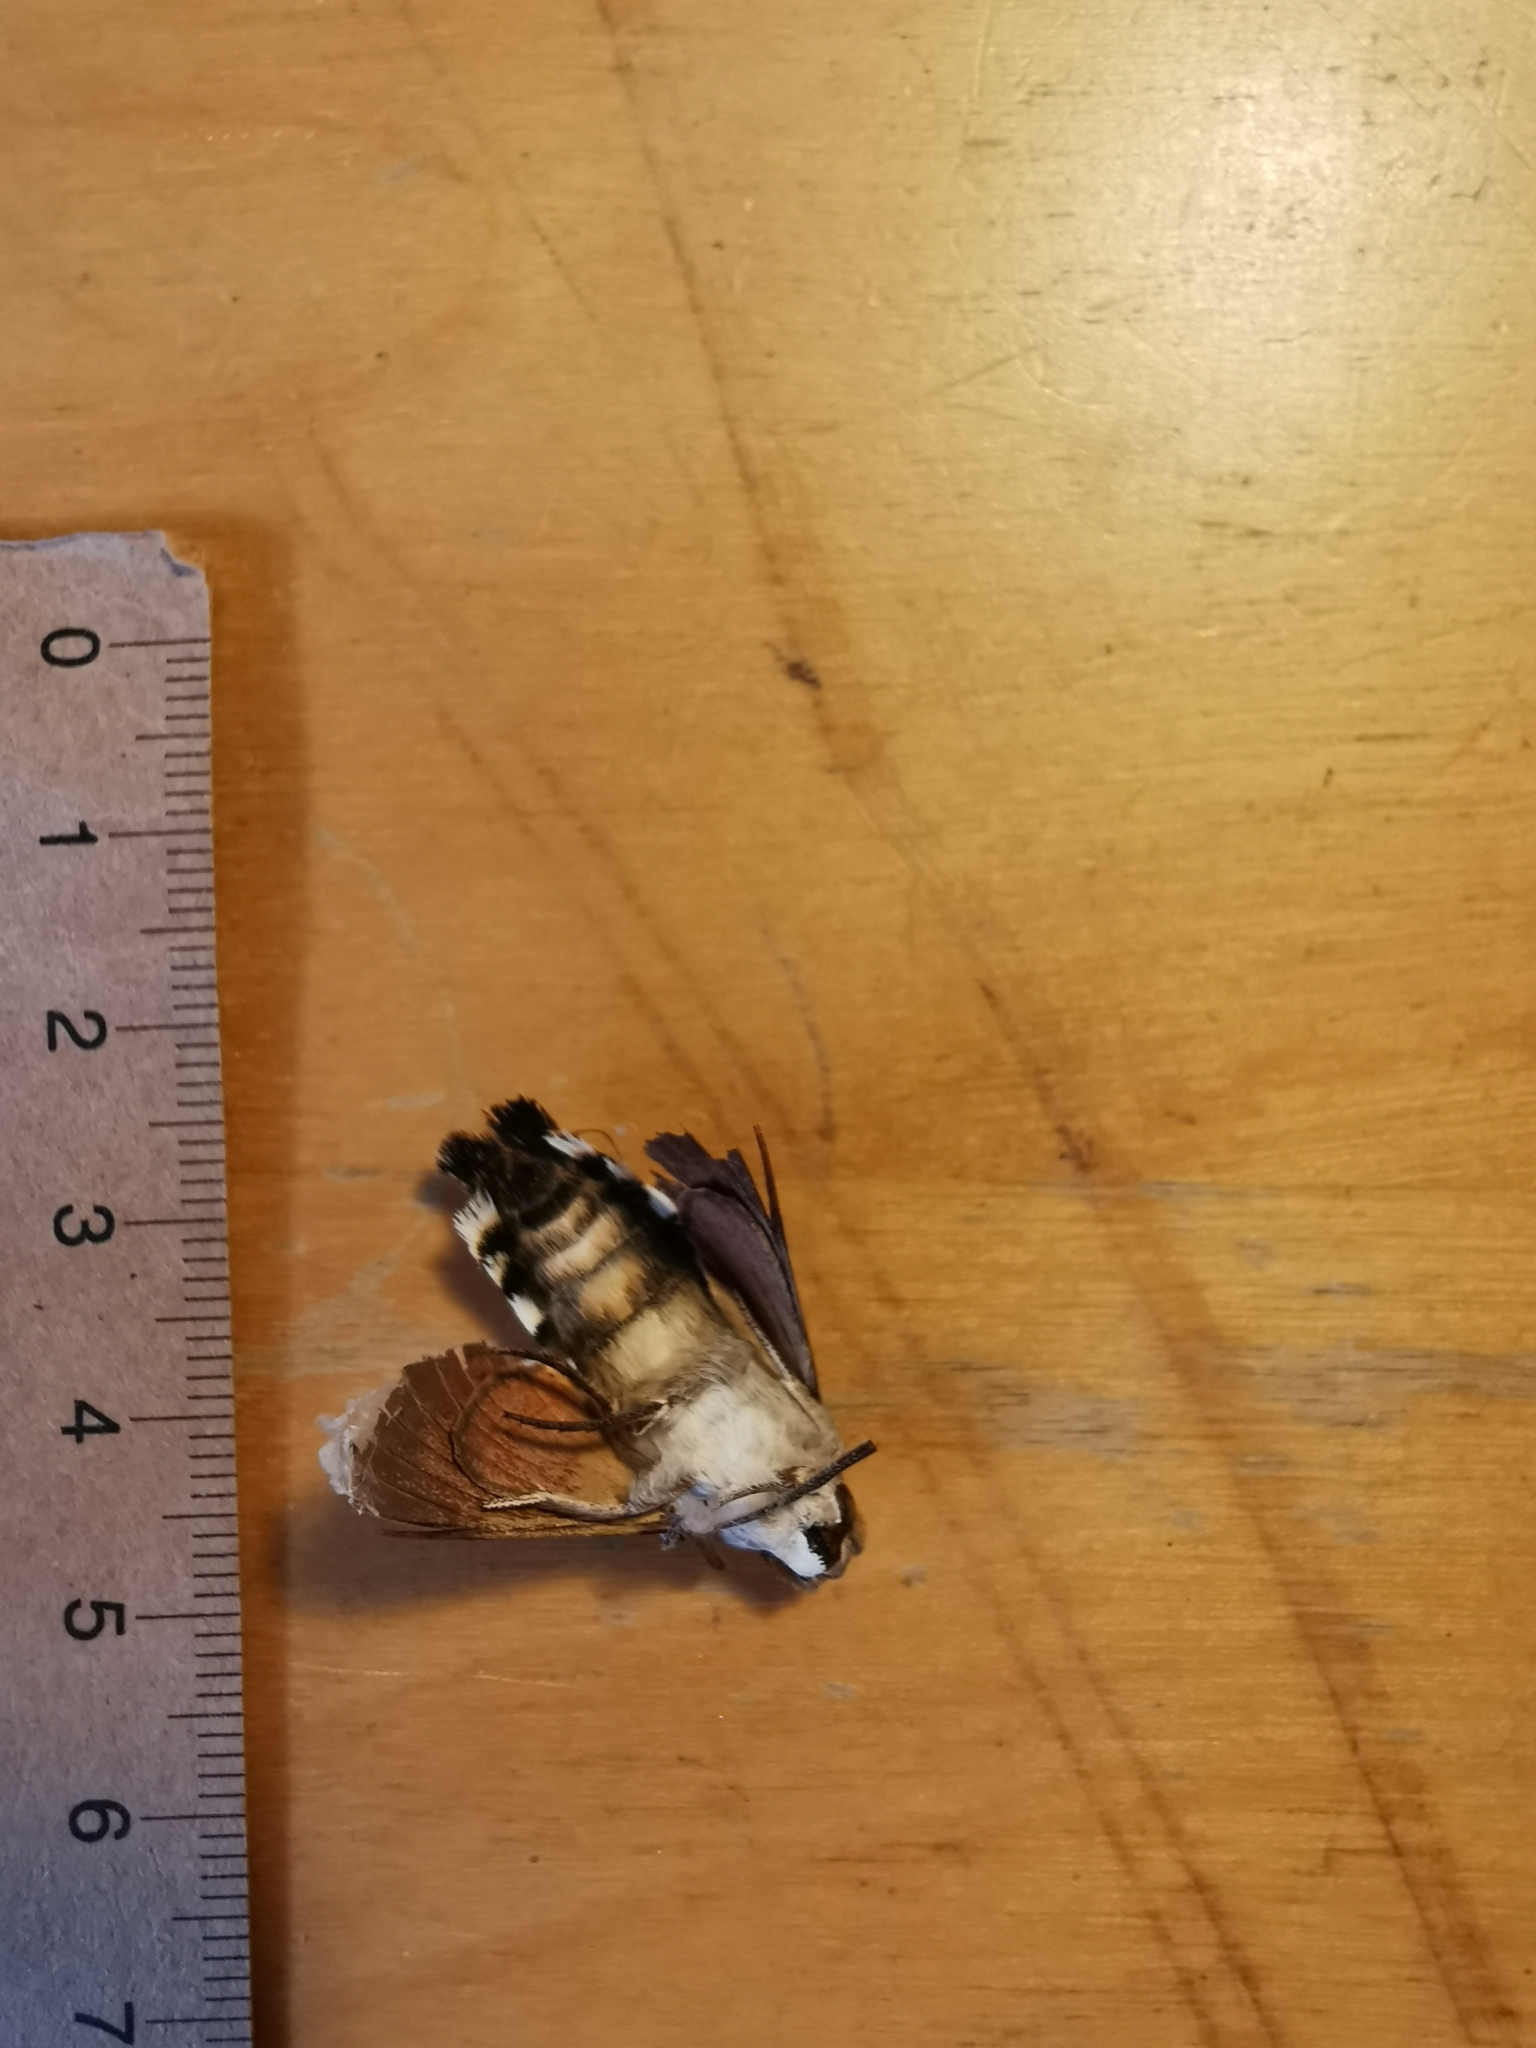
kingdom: Animalia
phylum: Arthropoda
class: Insecta
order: Lepidoptera
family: Sphingidae
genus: Macroglossum
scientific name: Macroglossum stellatarum
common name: Humming-bird hawk-moth
